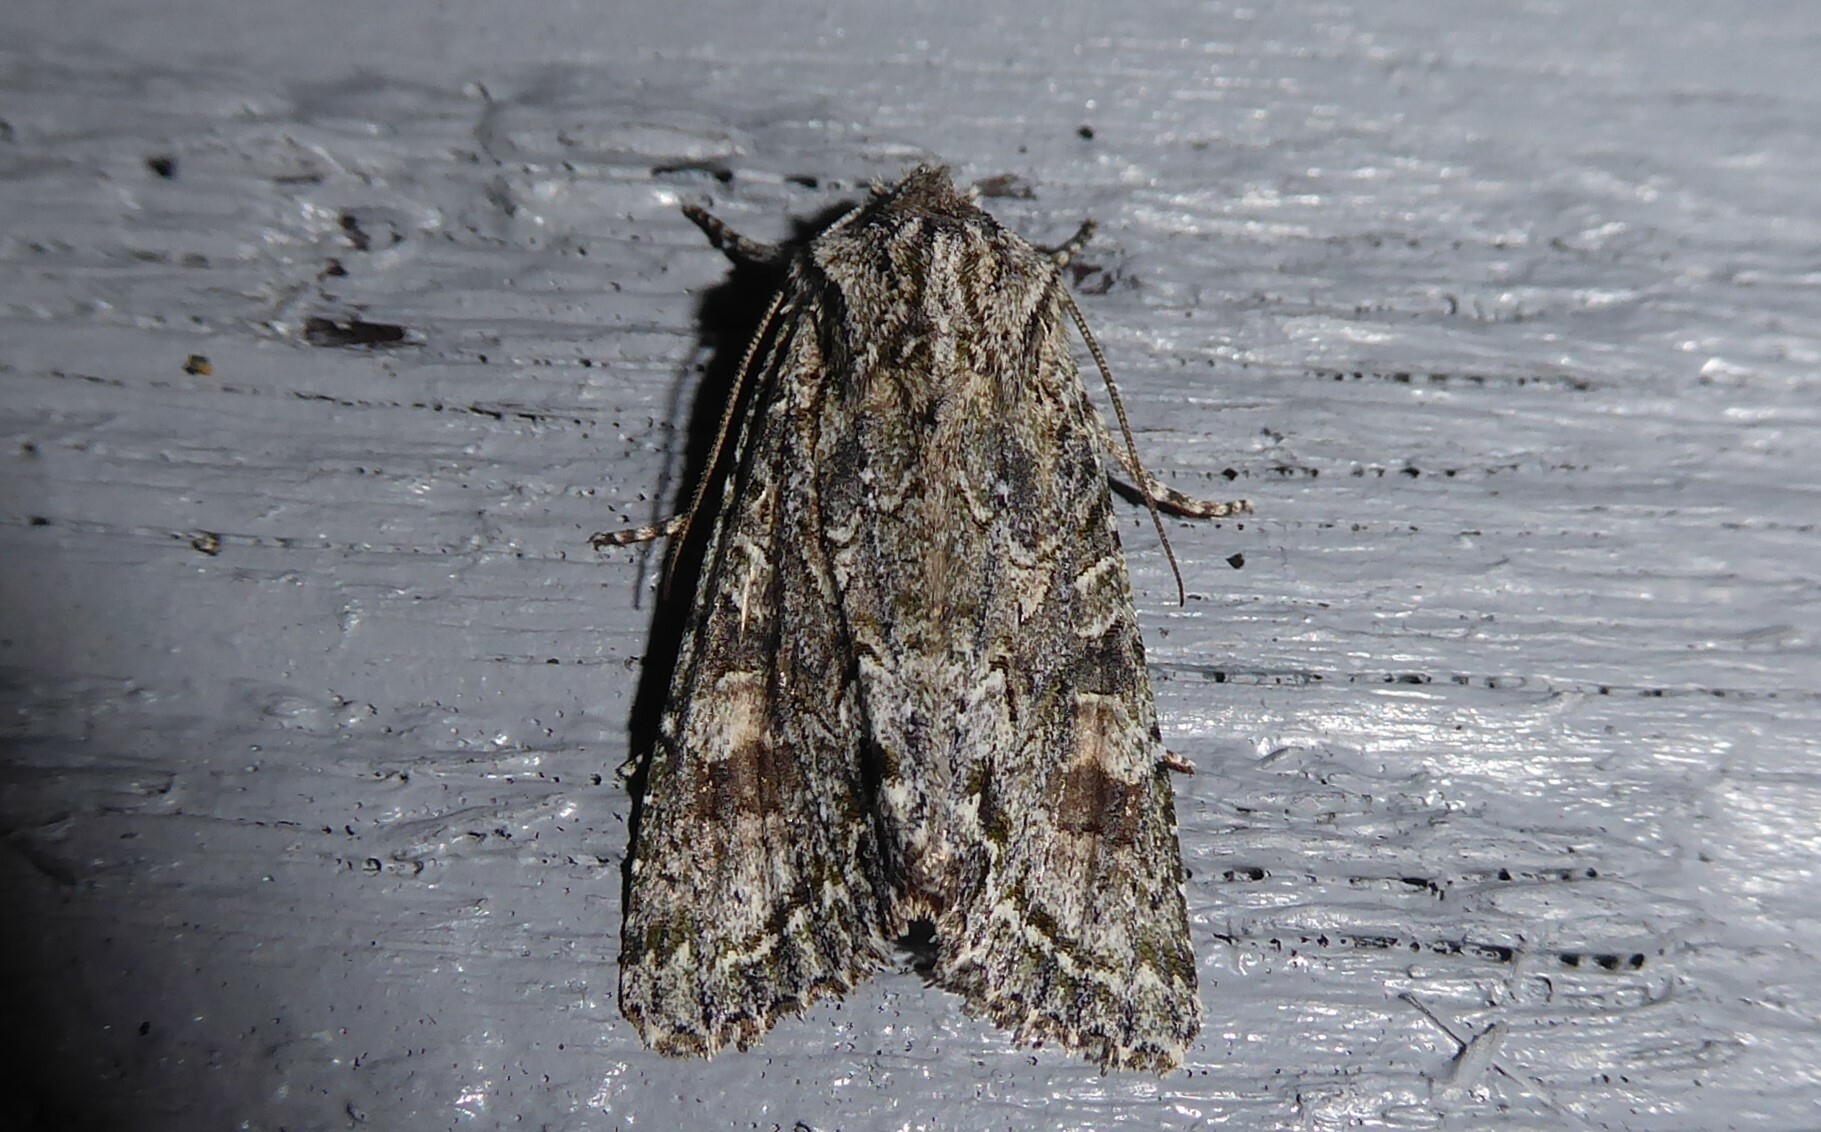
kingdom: Animalia
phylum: Arthropoda
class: Insecta
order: Lepidoptera
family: Noctuidae
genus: Ichneutica
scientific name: Ichneutica mutans
